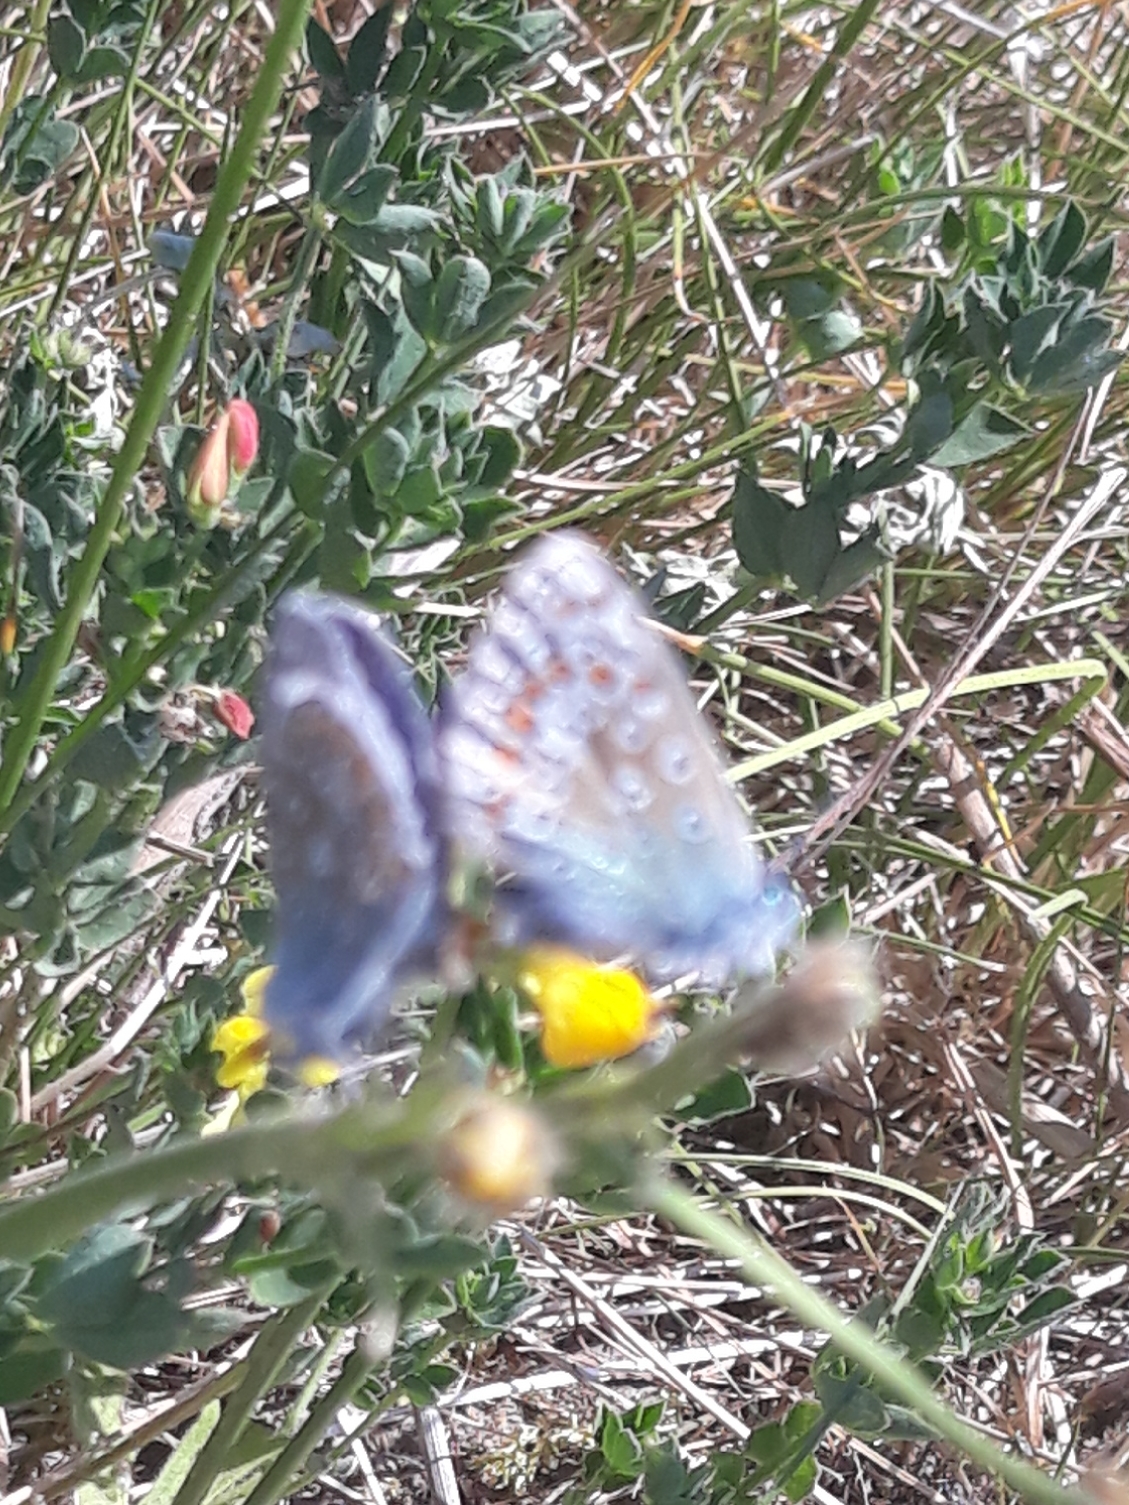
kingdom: Animalia
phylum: Arthropoda
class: Insecta
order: Lepidoptera
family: Lycaenidae
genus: Polyommatus
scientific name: Polyommatus icarus
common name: Common blue
